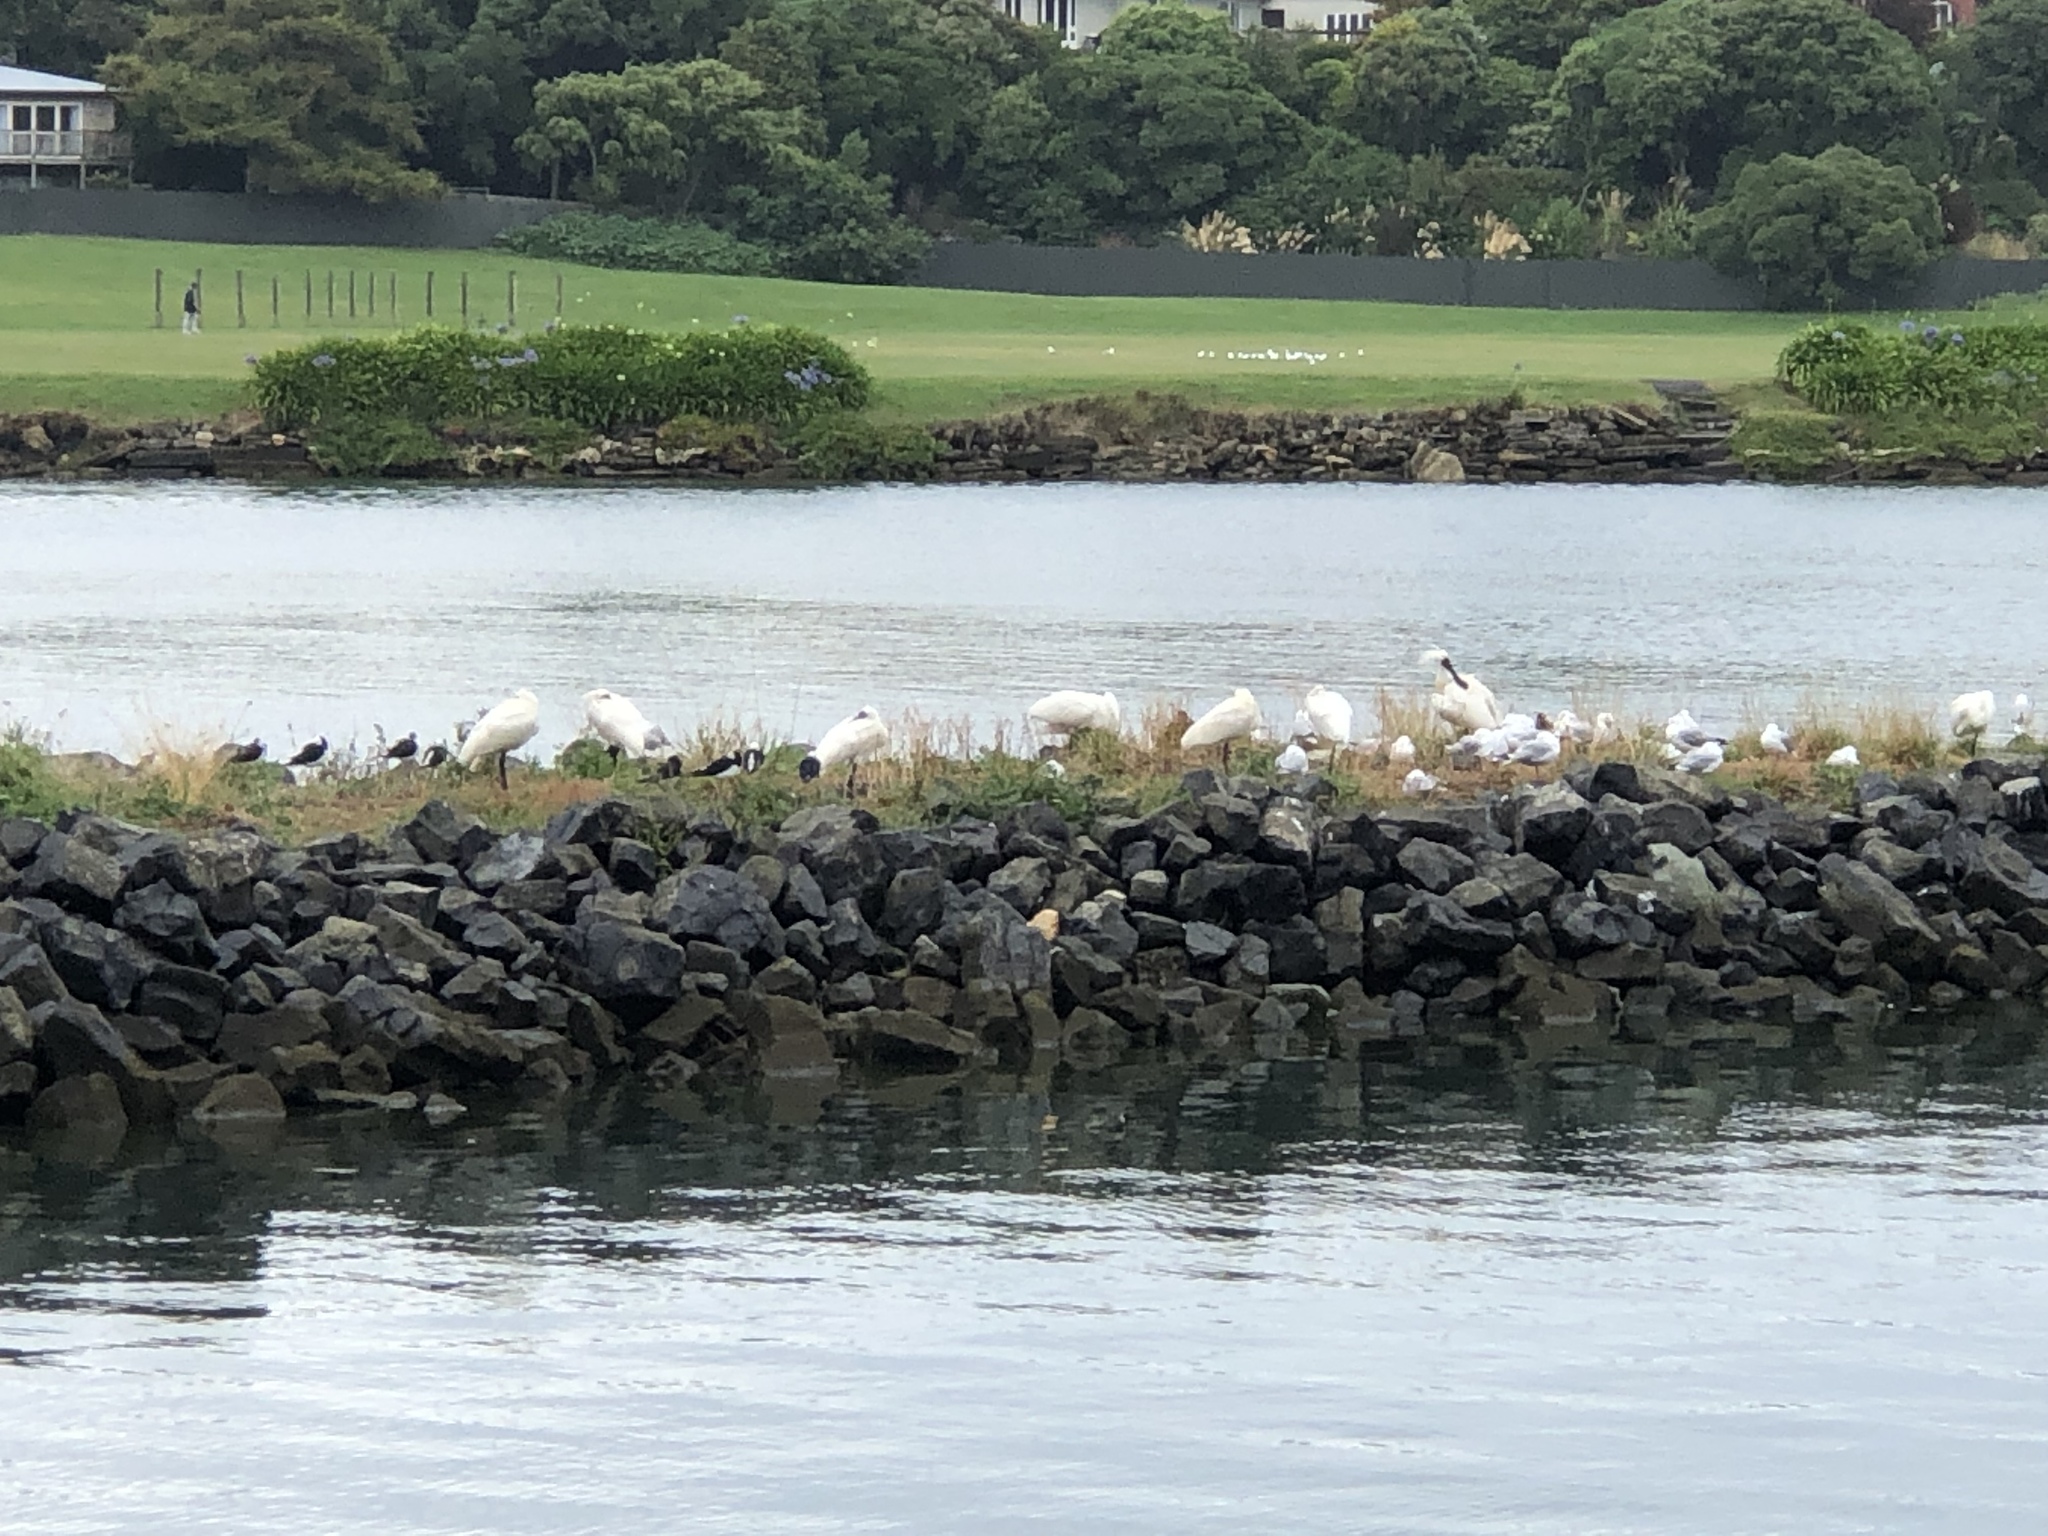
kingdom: Animalia
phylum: Chordata
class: Aves
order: Pelecaniformes
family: Threskiornithidae
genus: Platalea
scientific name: Platalea regia
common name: Royal spoonbill
